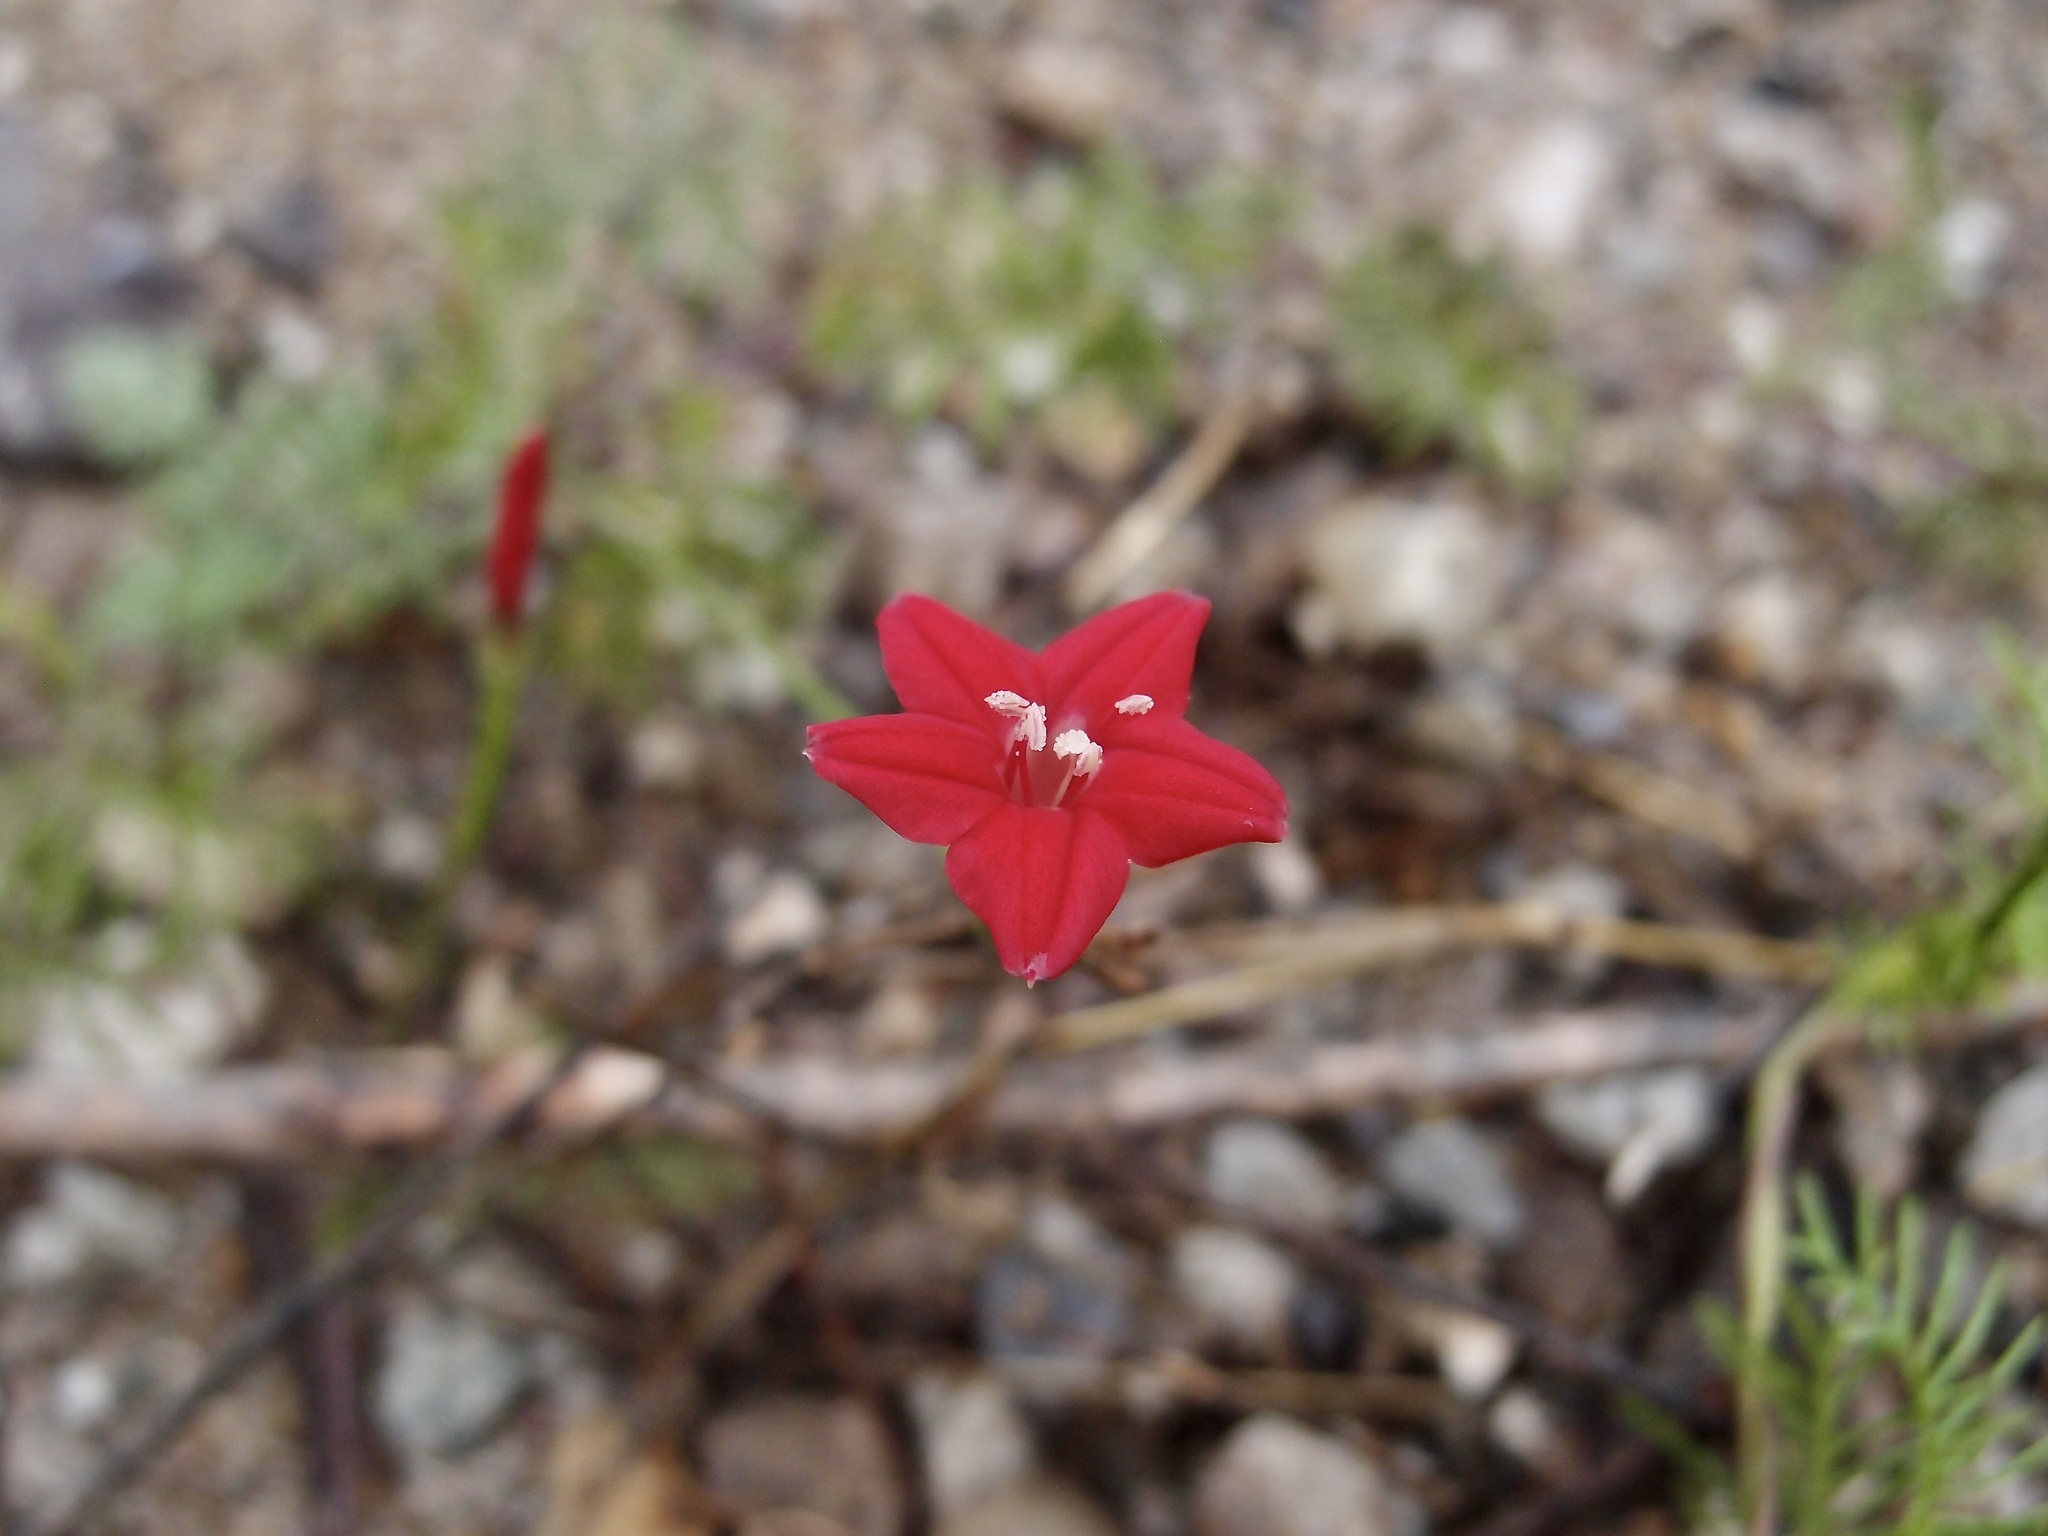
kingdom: Plantae
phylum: Tracheophyta
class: Magnoliopsida
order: Solanales
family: Convolvulaceae
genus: Ipomoea
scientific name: Ipomoea quamoclit
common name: Cypress vine
